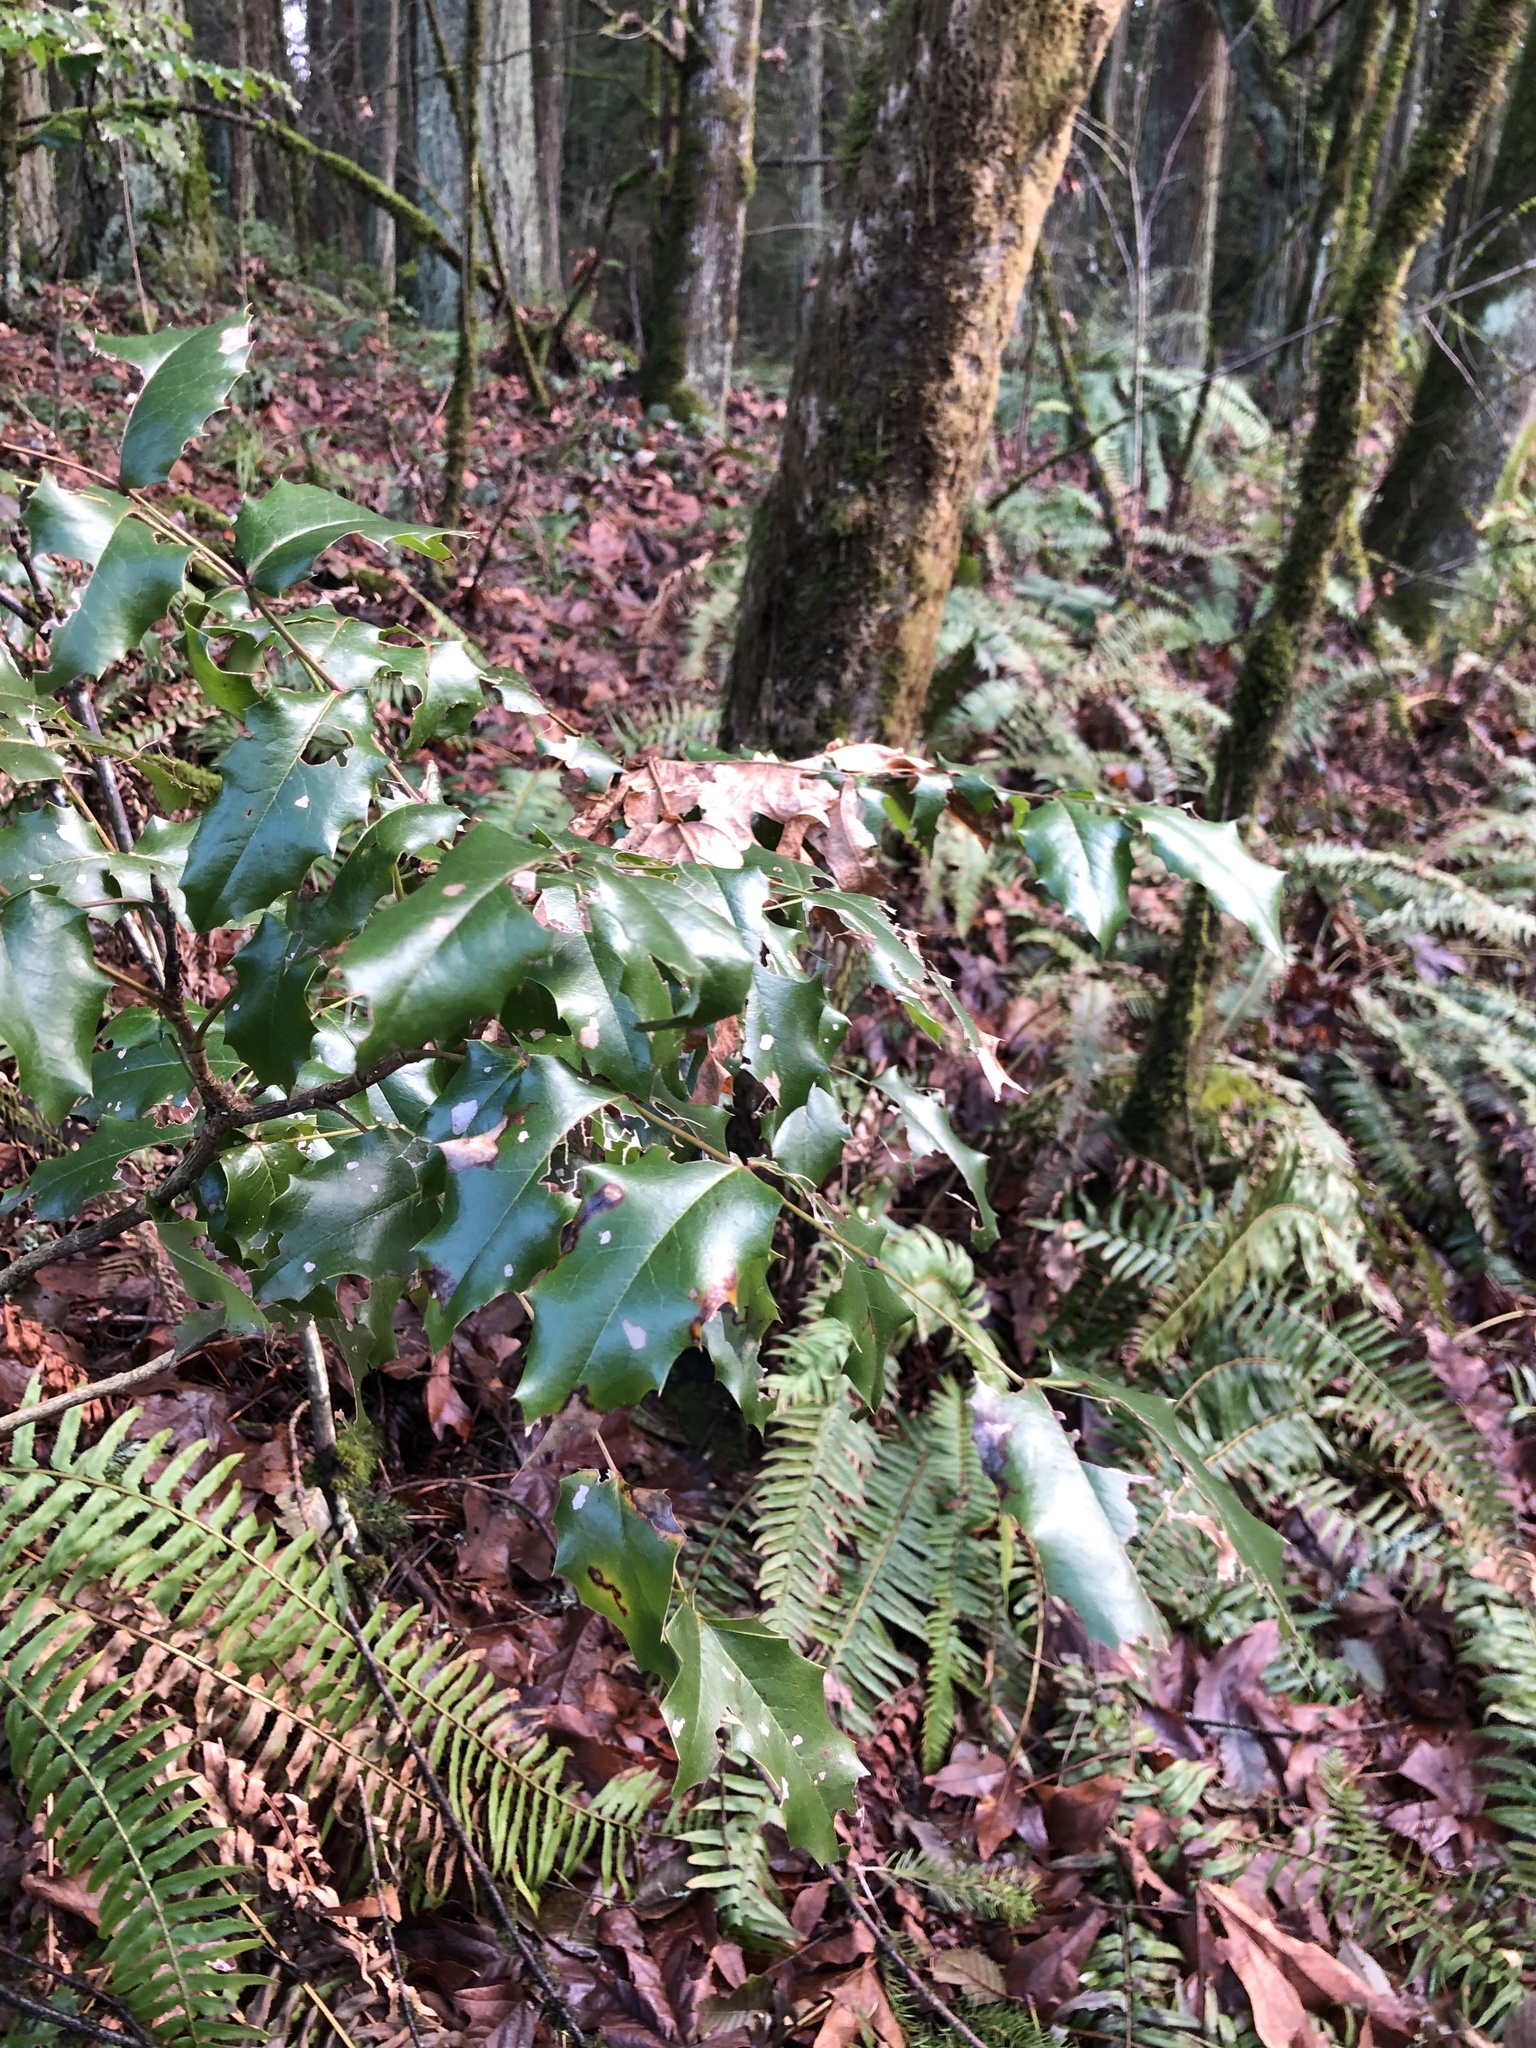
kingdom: Plantae
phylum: Tracheophyta
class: Magnoliopsida
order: Ranunculales
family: Berberidaceae
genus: Mahonia
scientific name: Mahonia aquifolium
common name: Oregon-grape
